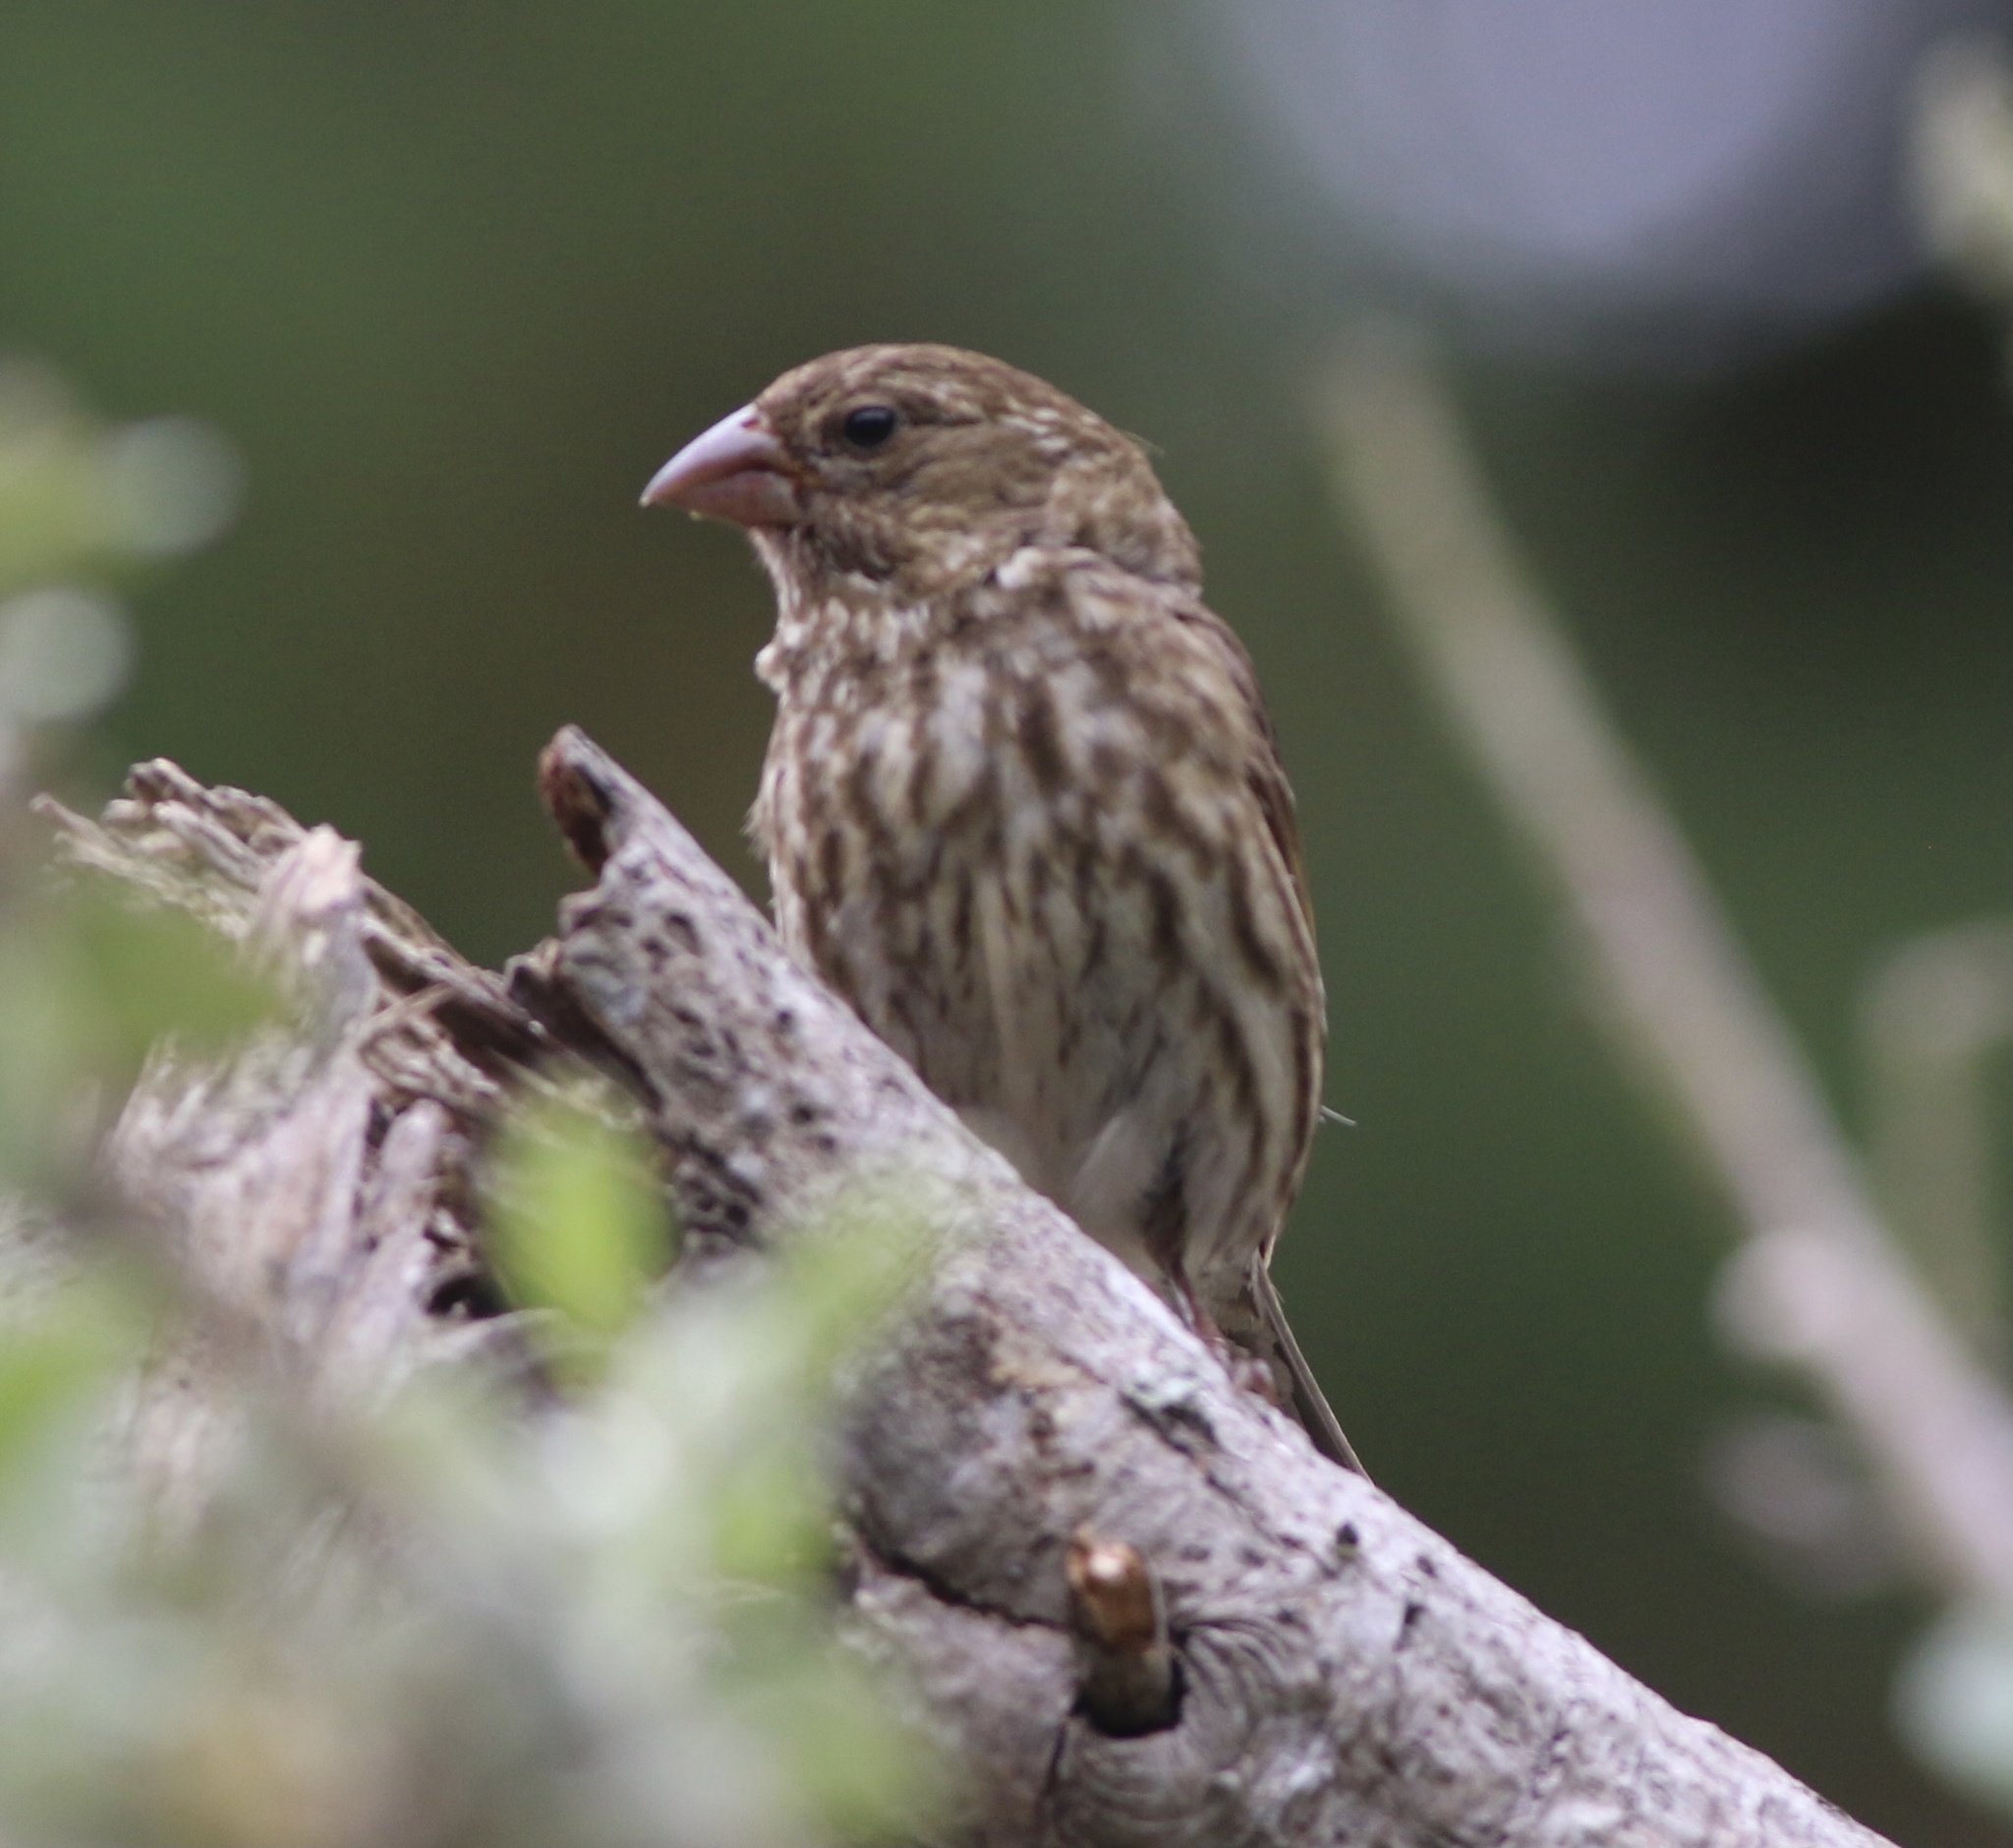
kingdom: Animalia
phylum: Chordata
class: Aves
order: Passeriformes
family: Fringillidae
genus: Haemorhous
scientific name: Haemorhous purpureus
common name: Purple finch
